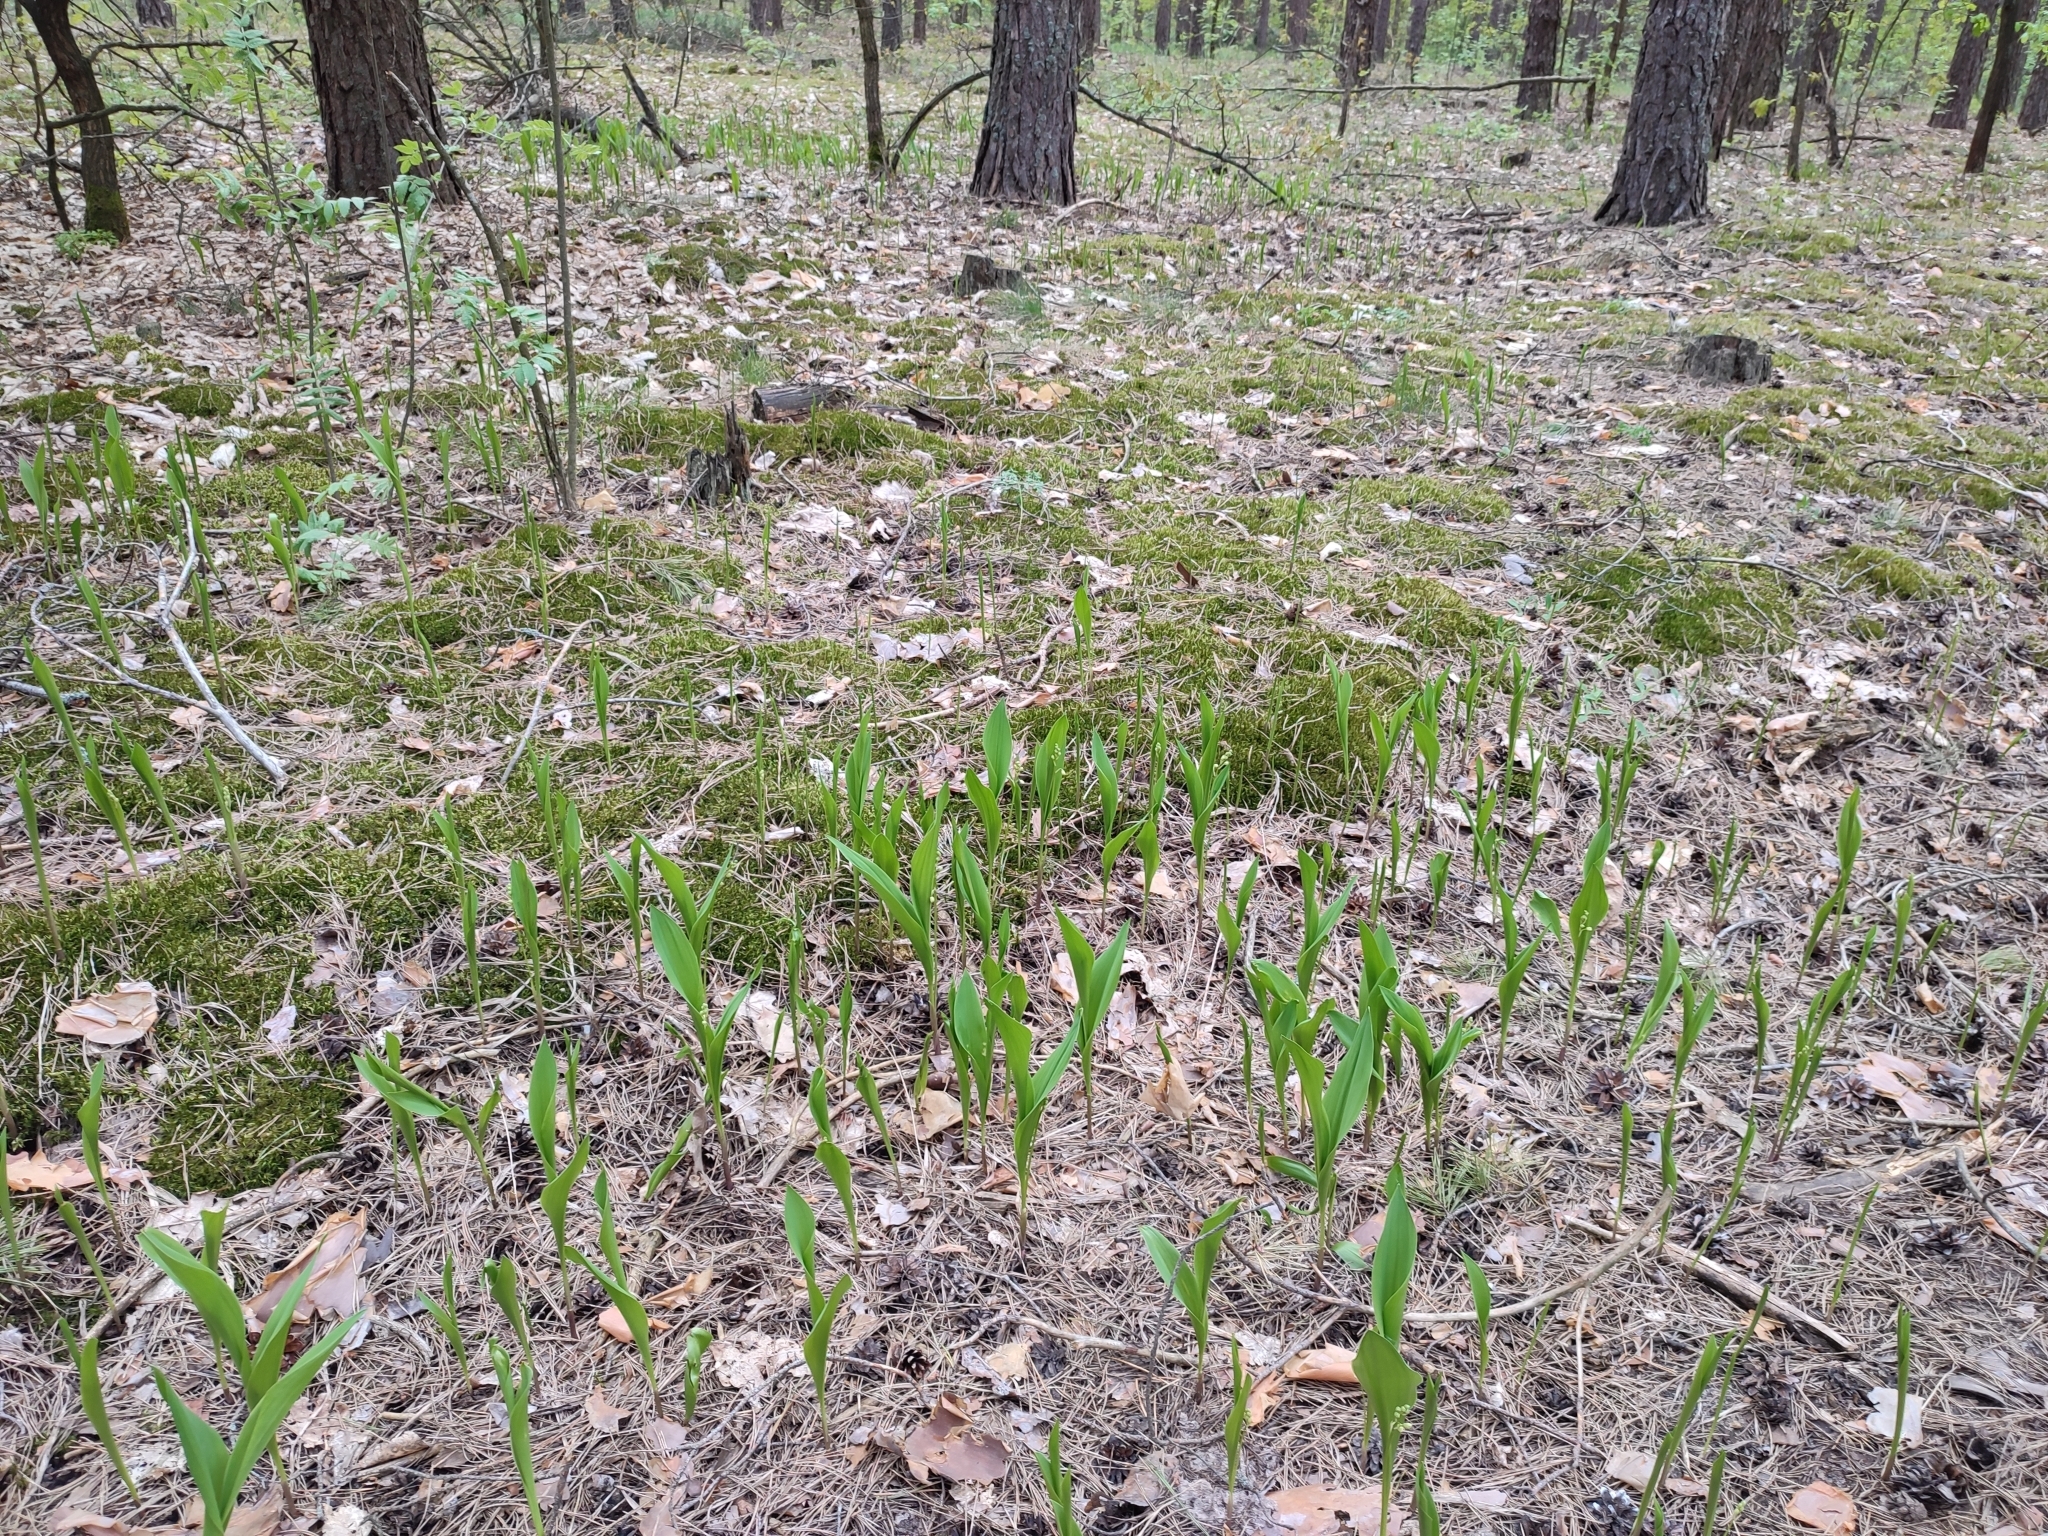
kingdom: Plantae
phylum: Tracheophyta
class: Liliopsida
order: Asparagales
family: Asparagaceae
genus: Convallaria
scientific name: Convallaria majalis
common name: Lily-of-the-valley
